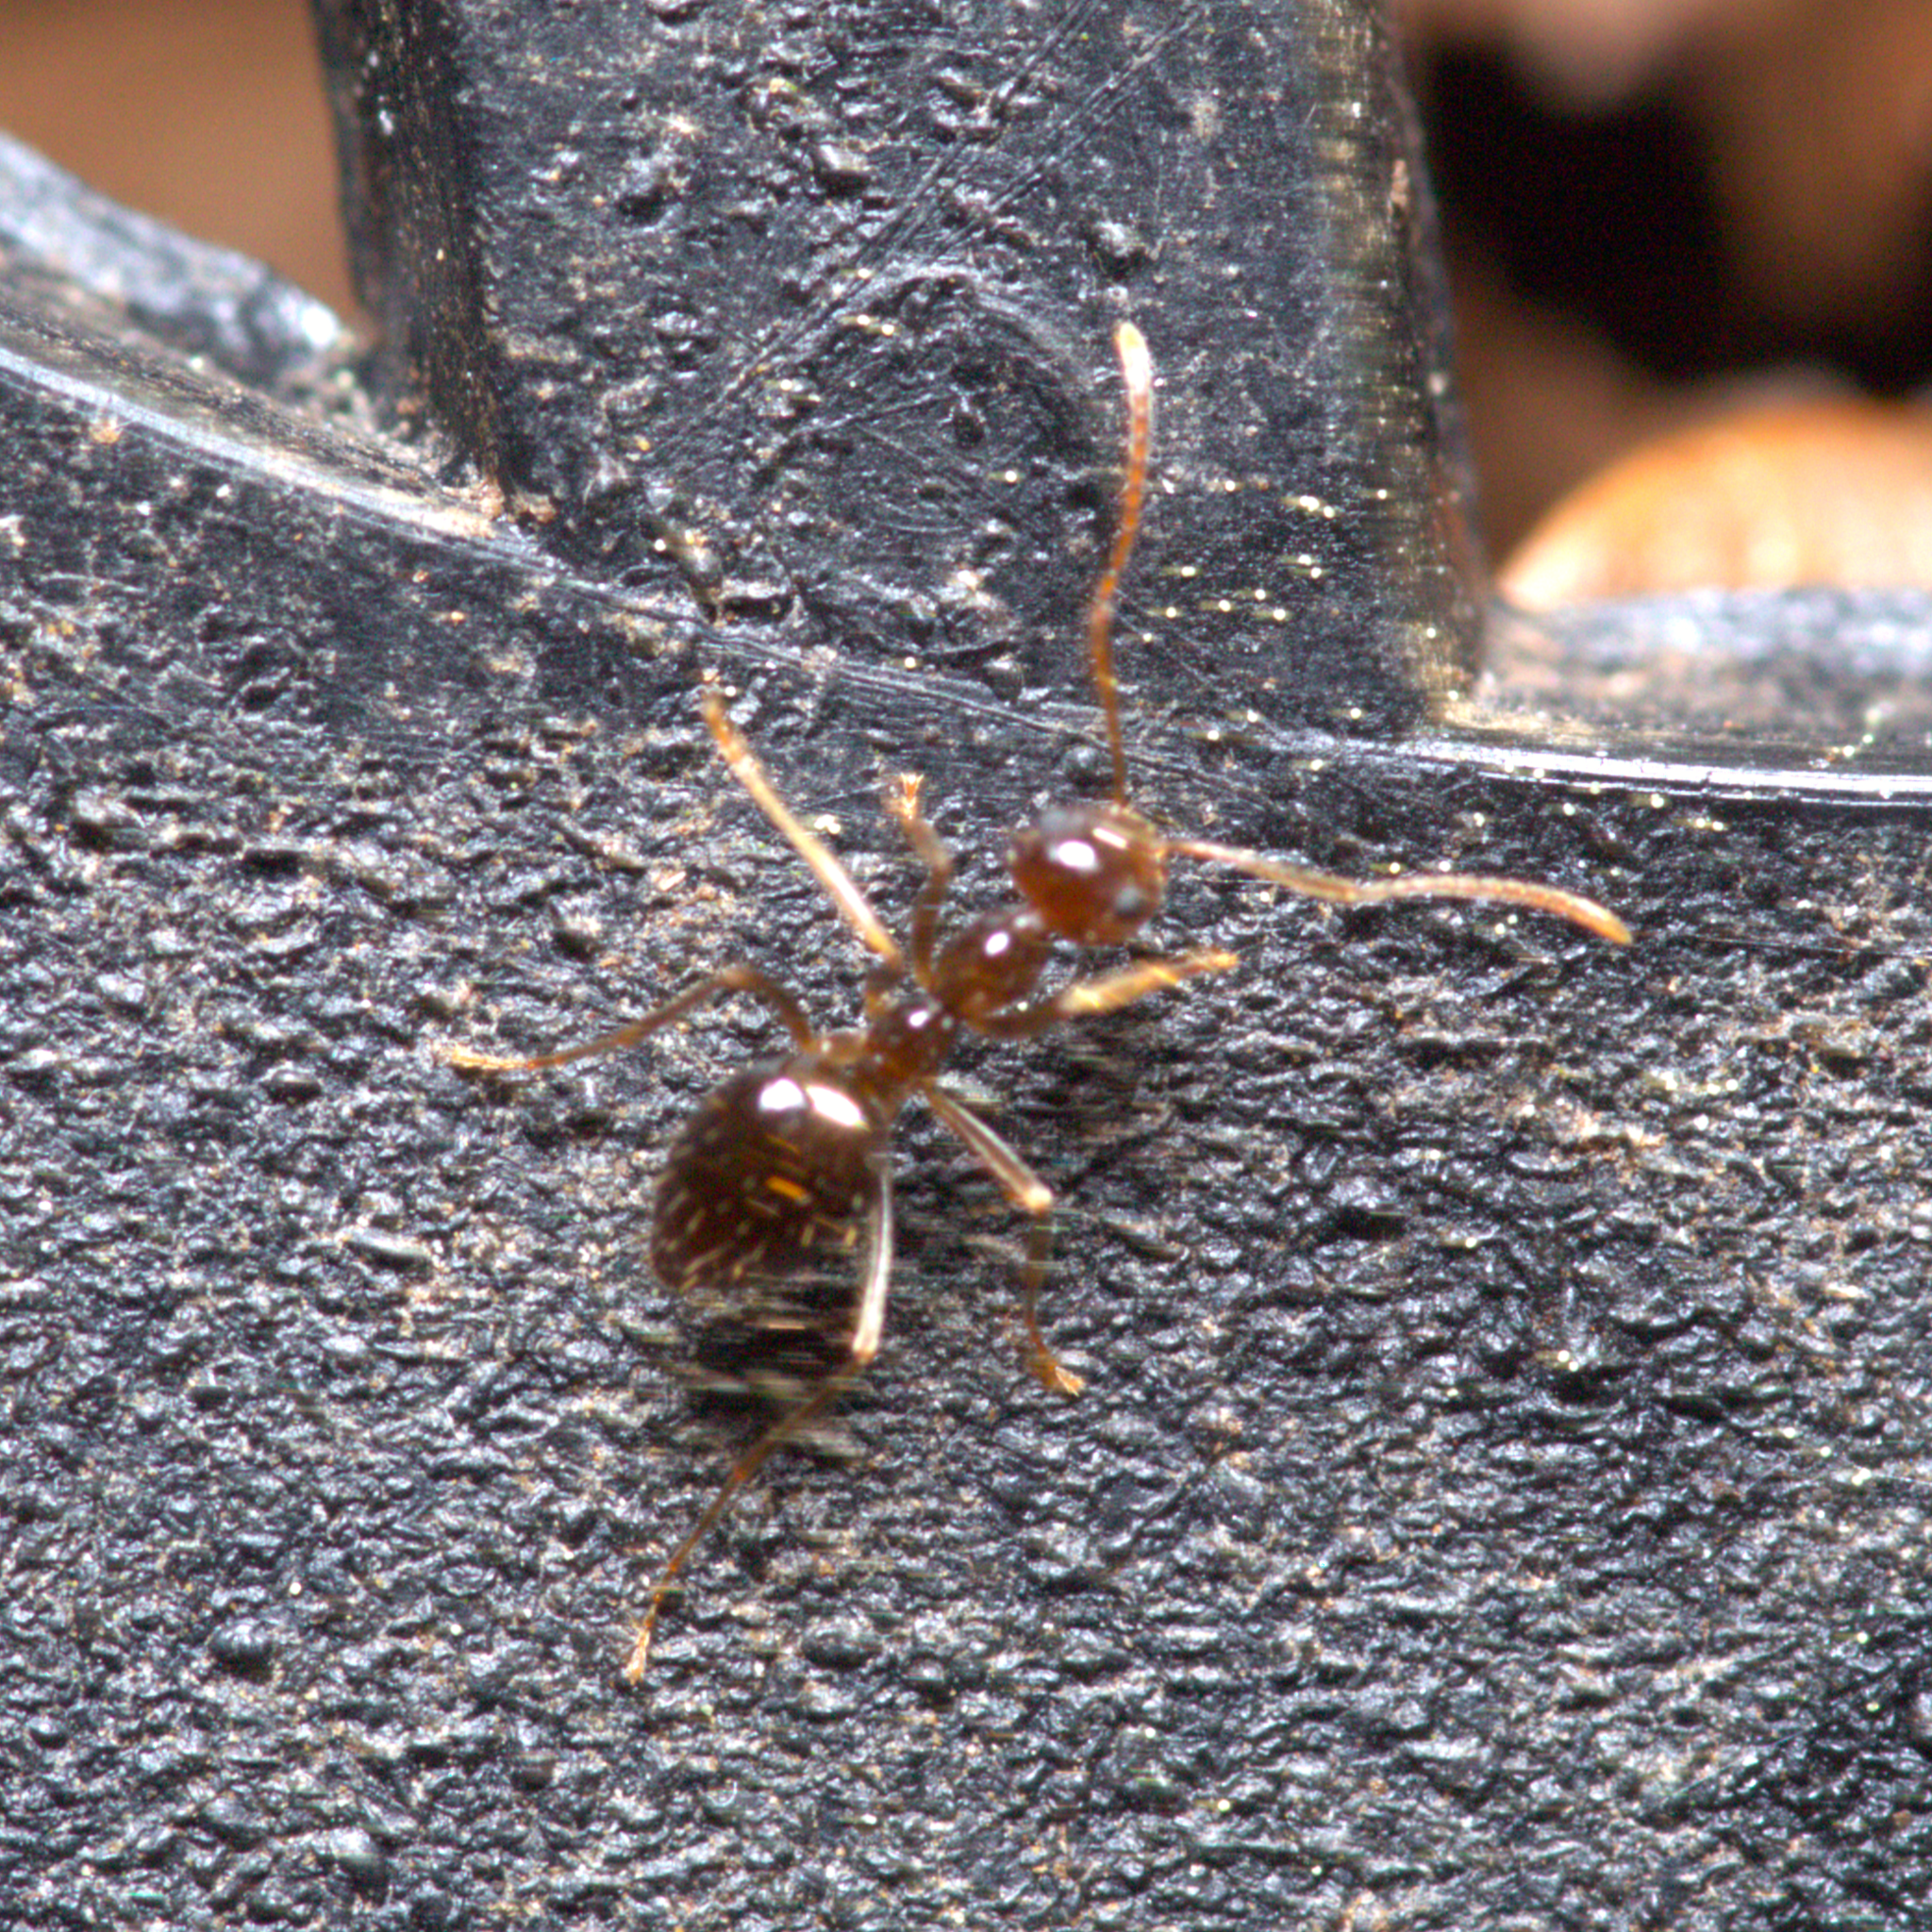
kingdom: Animalia
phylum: Arthropoda
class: Insecta
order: Hymenoptera
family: Formicidae
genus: Prenolepis
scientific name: Prenolepis imparis
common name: Small honey ant
